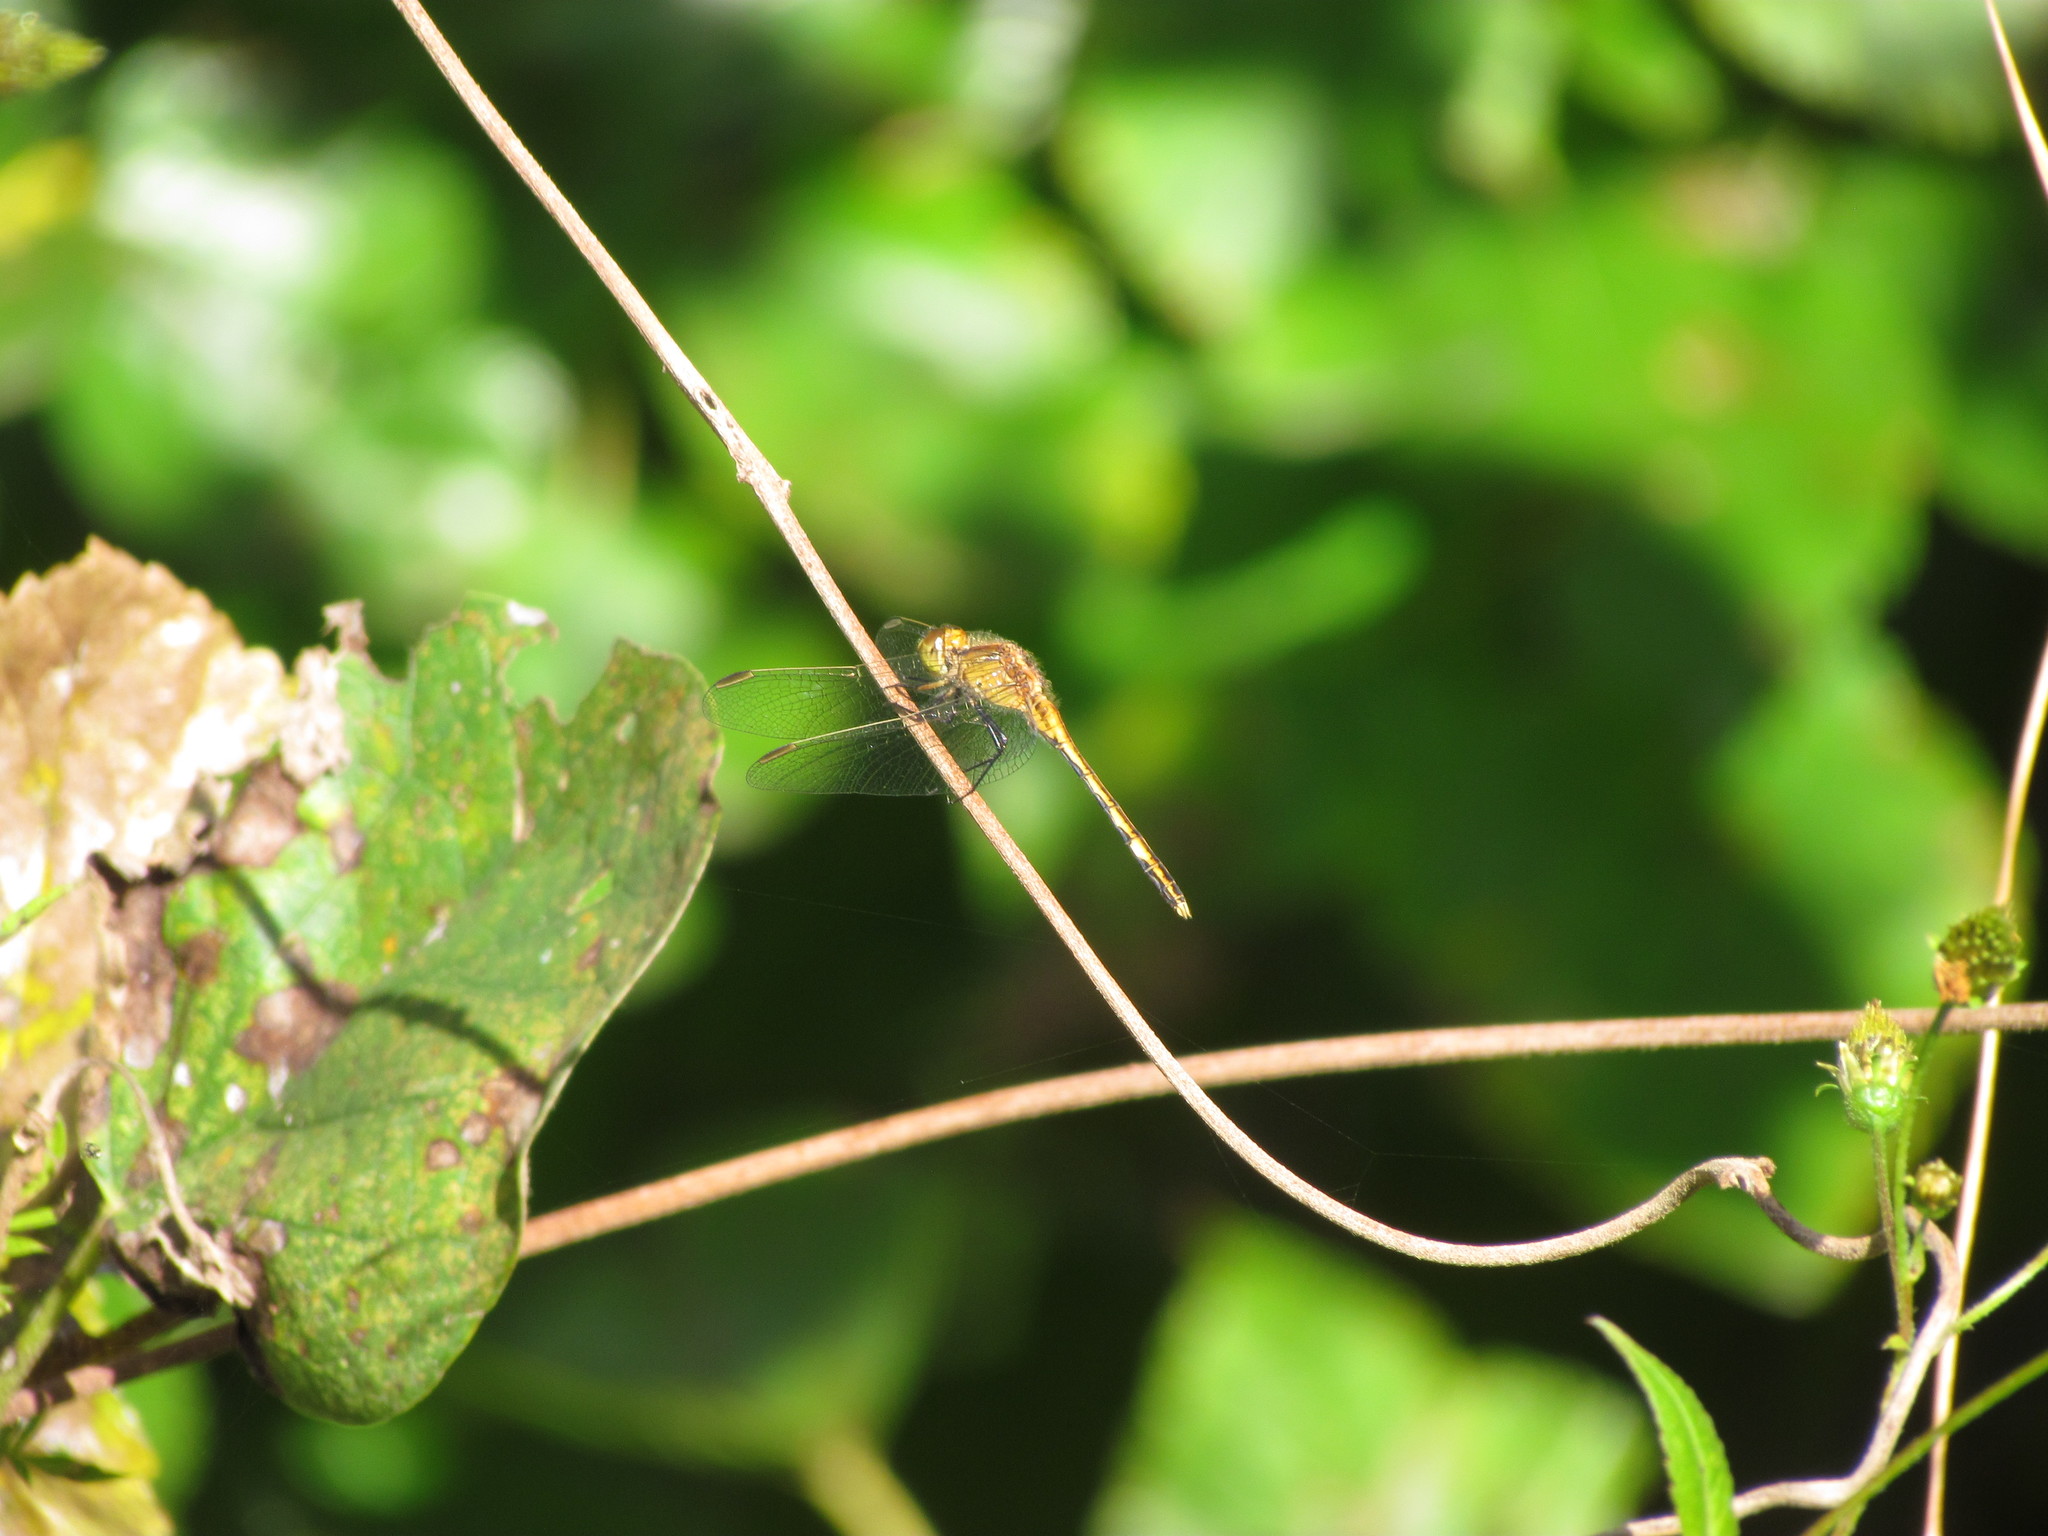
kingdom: Animalia
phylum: Arthropoda
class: Insecta
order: Odonata
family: Libellulidae
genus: Erythrodiplax
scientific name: Erythrodiplax nigricans
